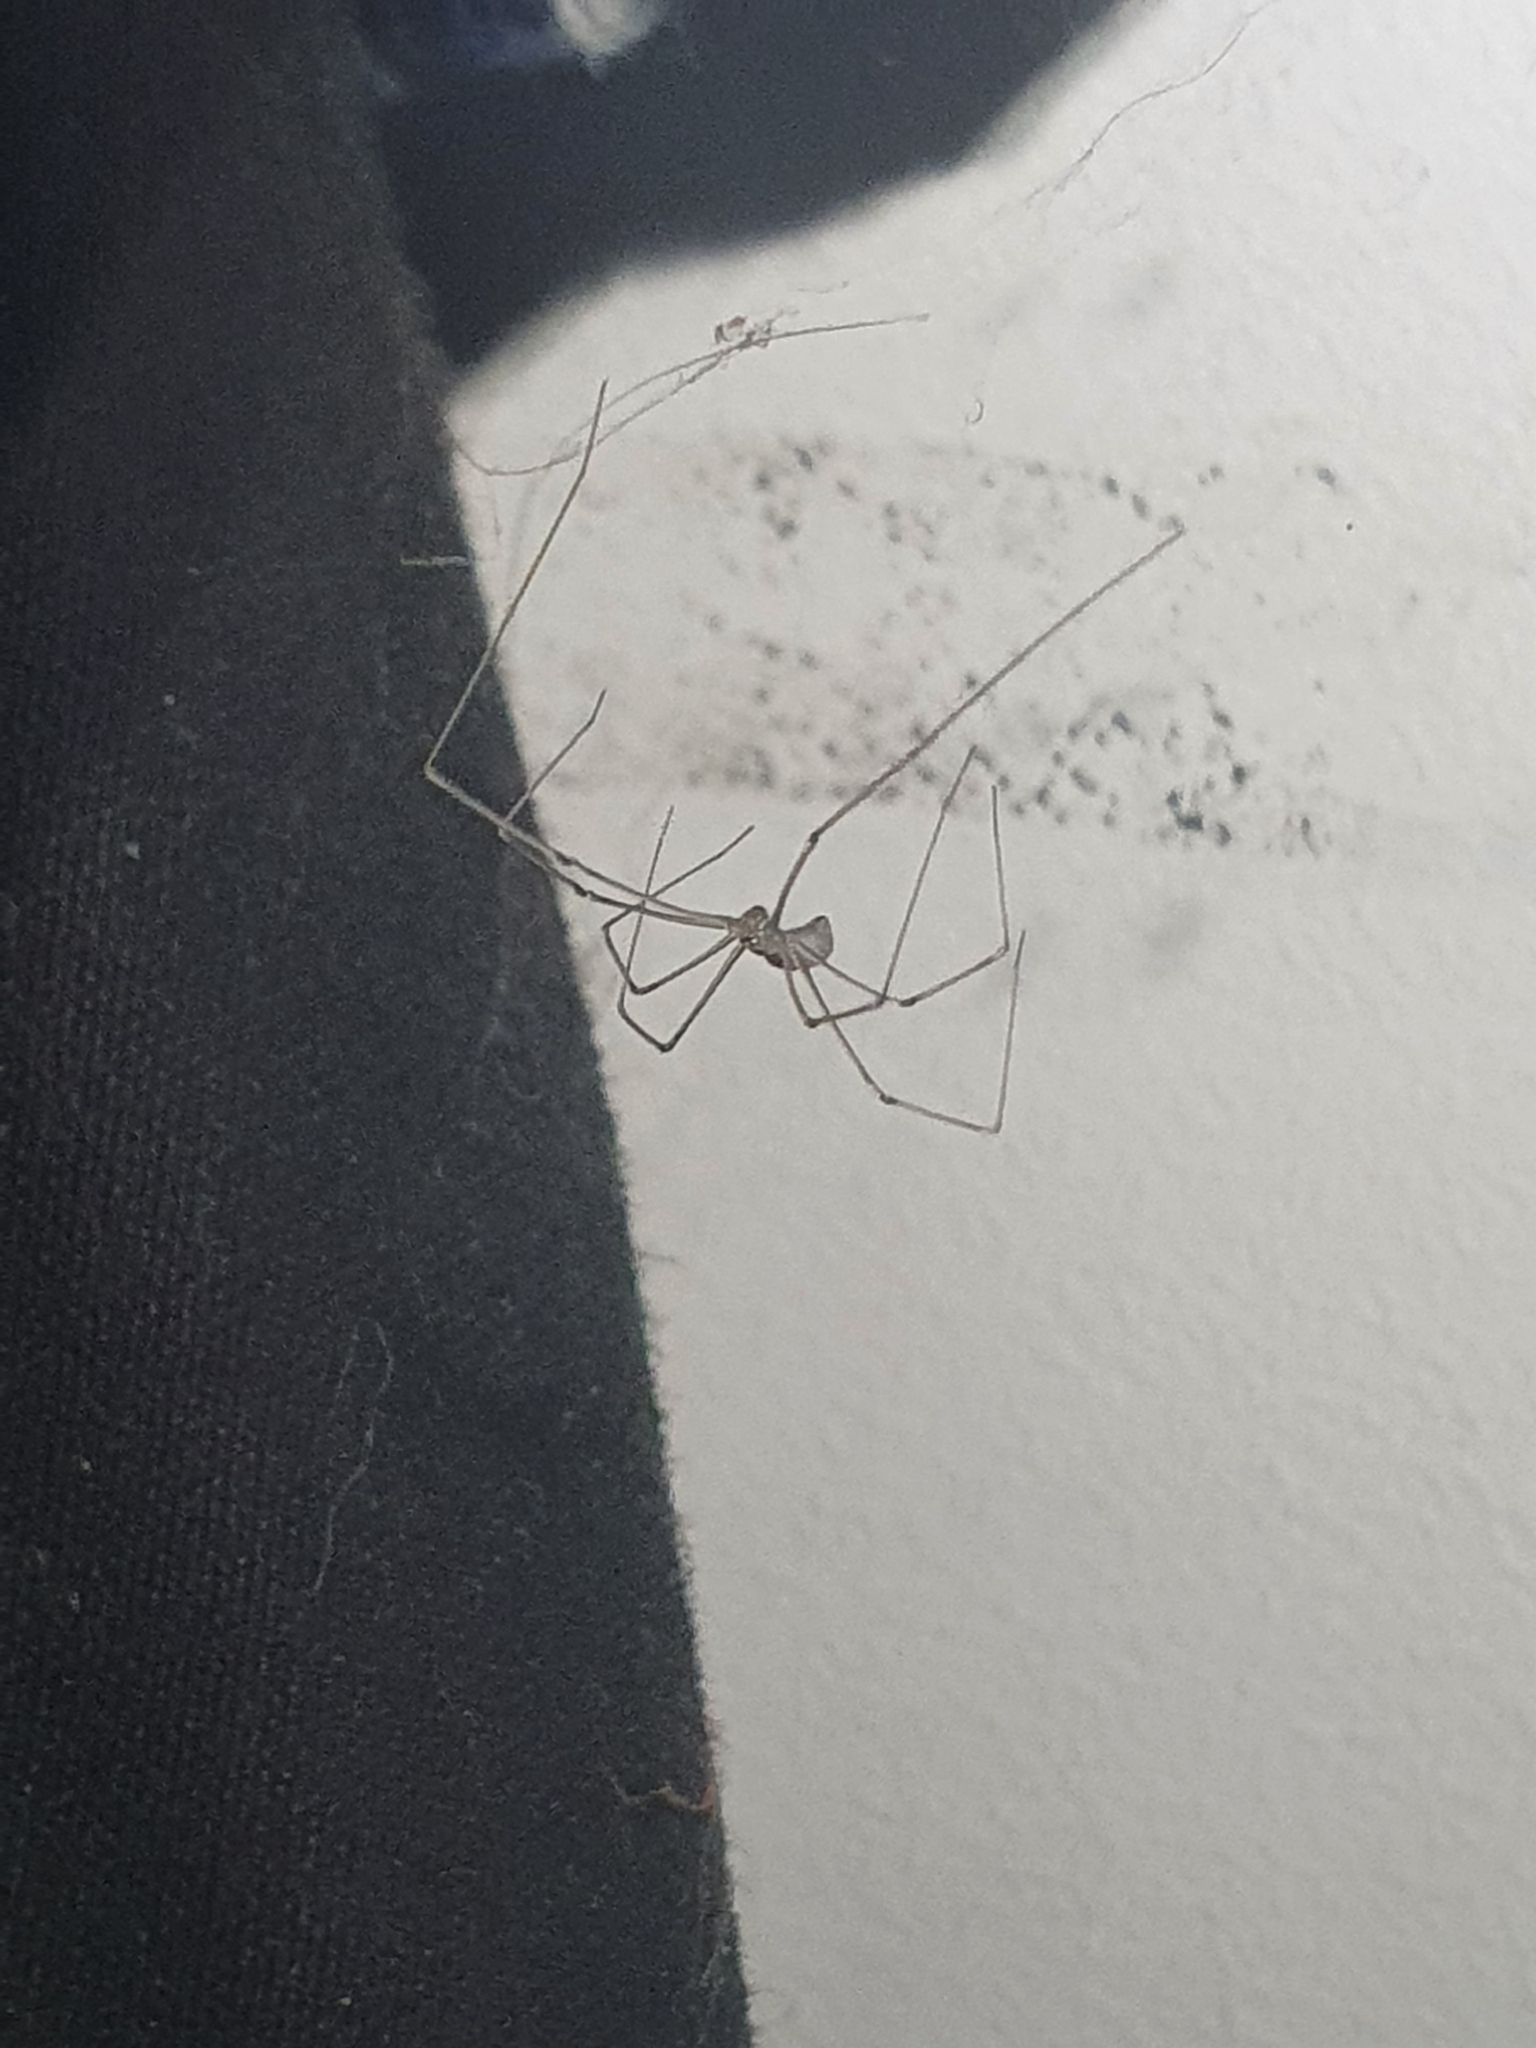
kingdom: Animalia
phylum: Arthropoda
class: Arachnida
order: Araneae
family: Pholcidae
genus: Pholcus
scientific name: Pholcus phalangioides
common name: Longbodied cellar spider
